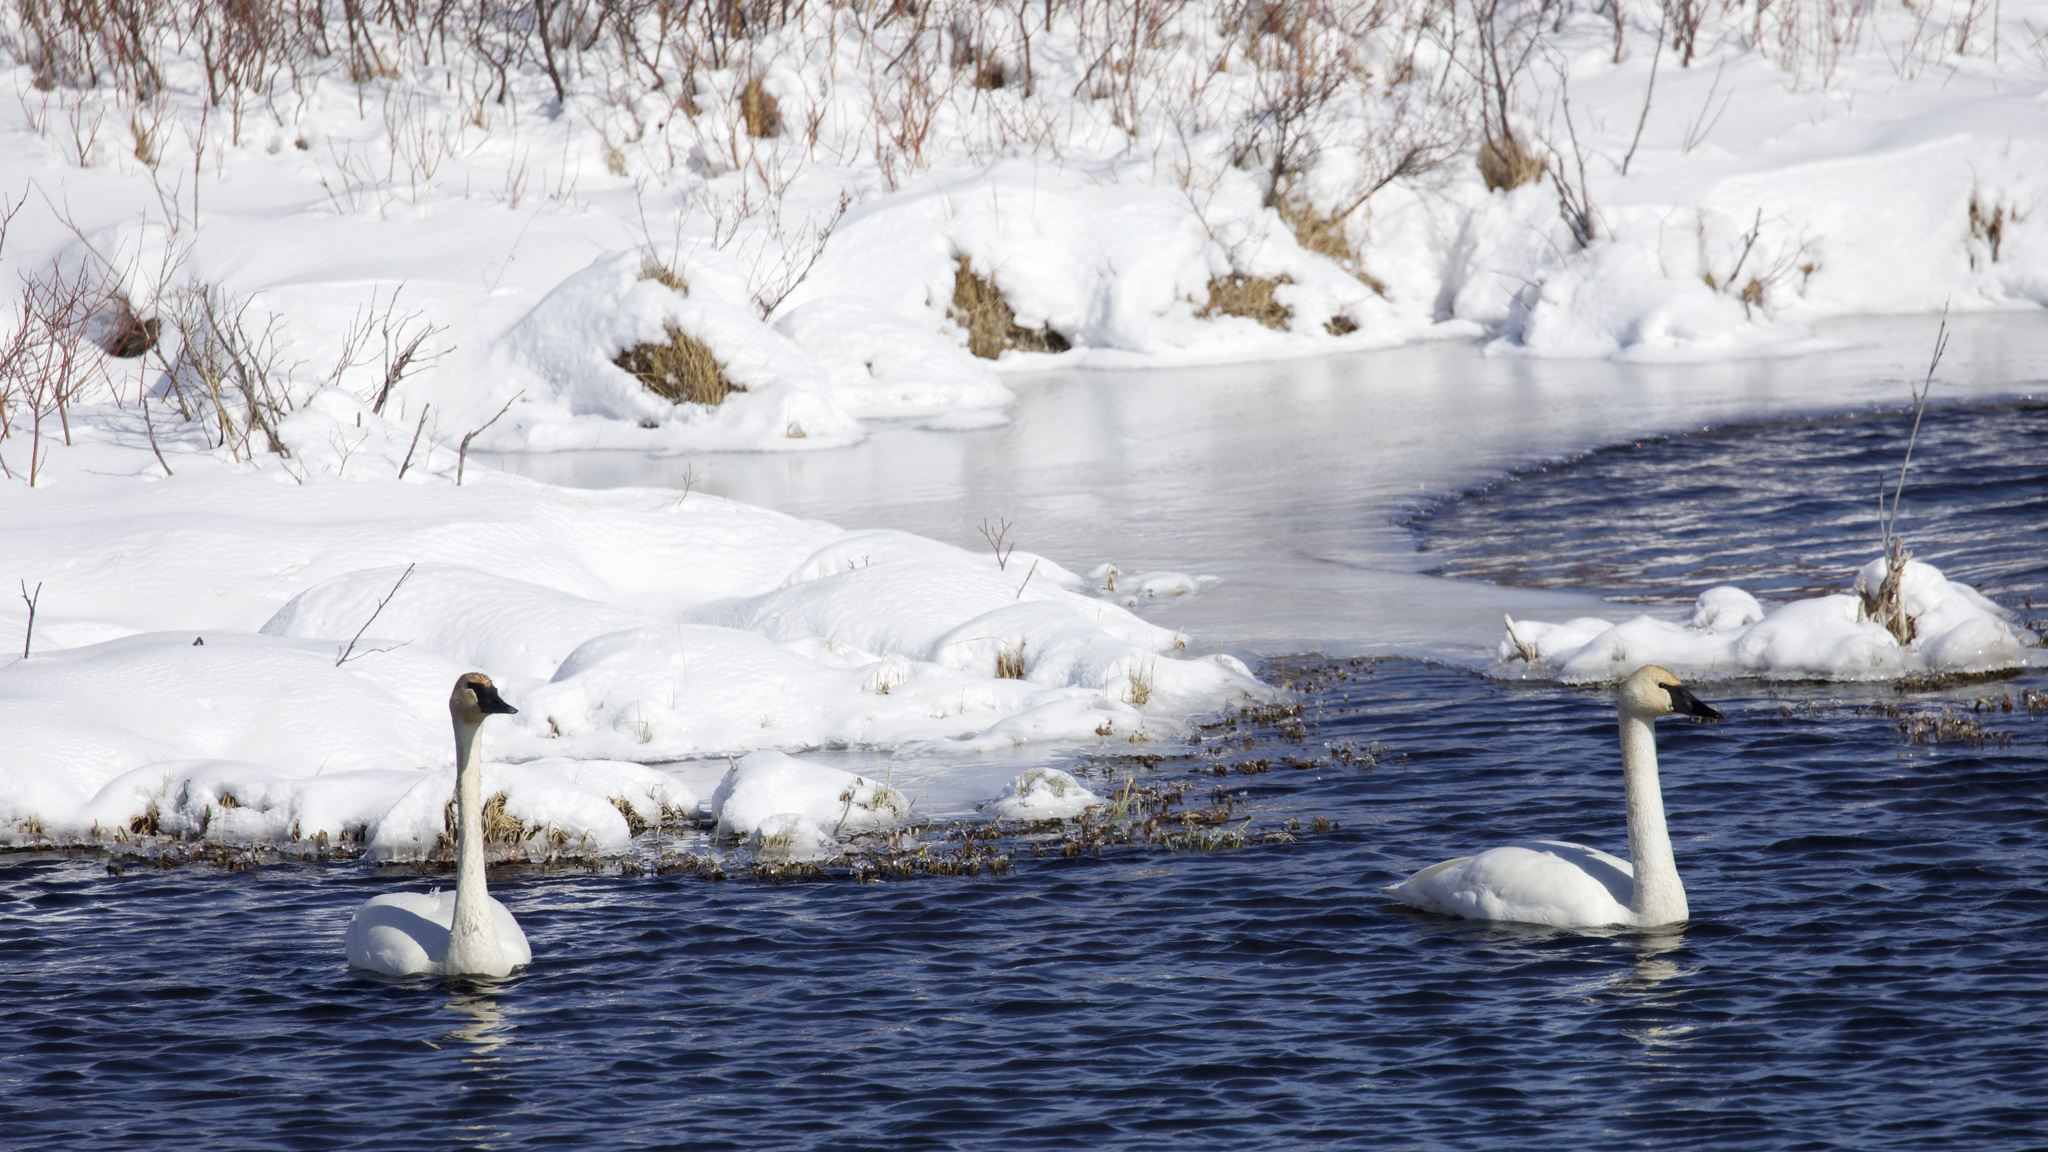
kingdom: Animalia
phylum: Chordata
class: Aves
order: Anseriformes
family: Anatidae
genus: Cygnus
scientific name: Cygnus buccinator
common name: Trumpeter swan
